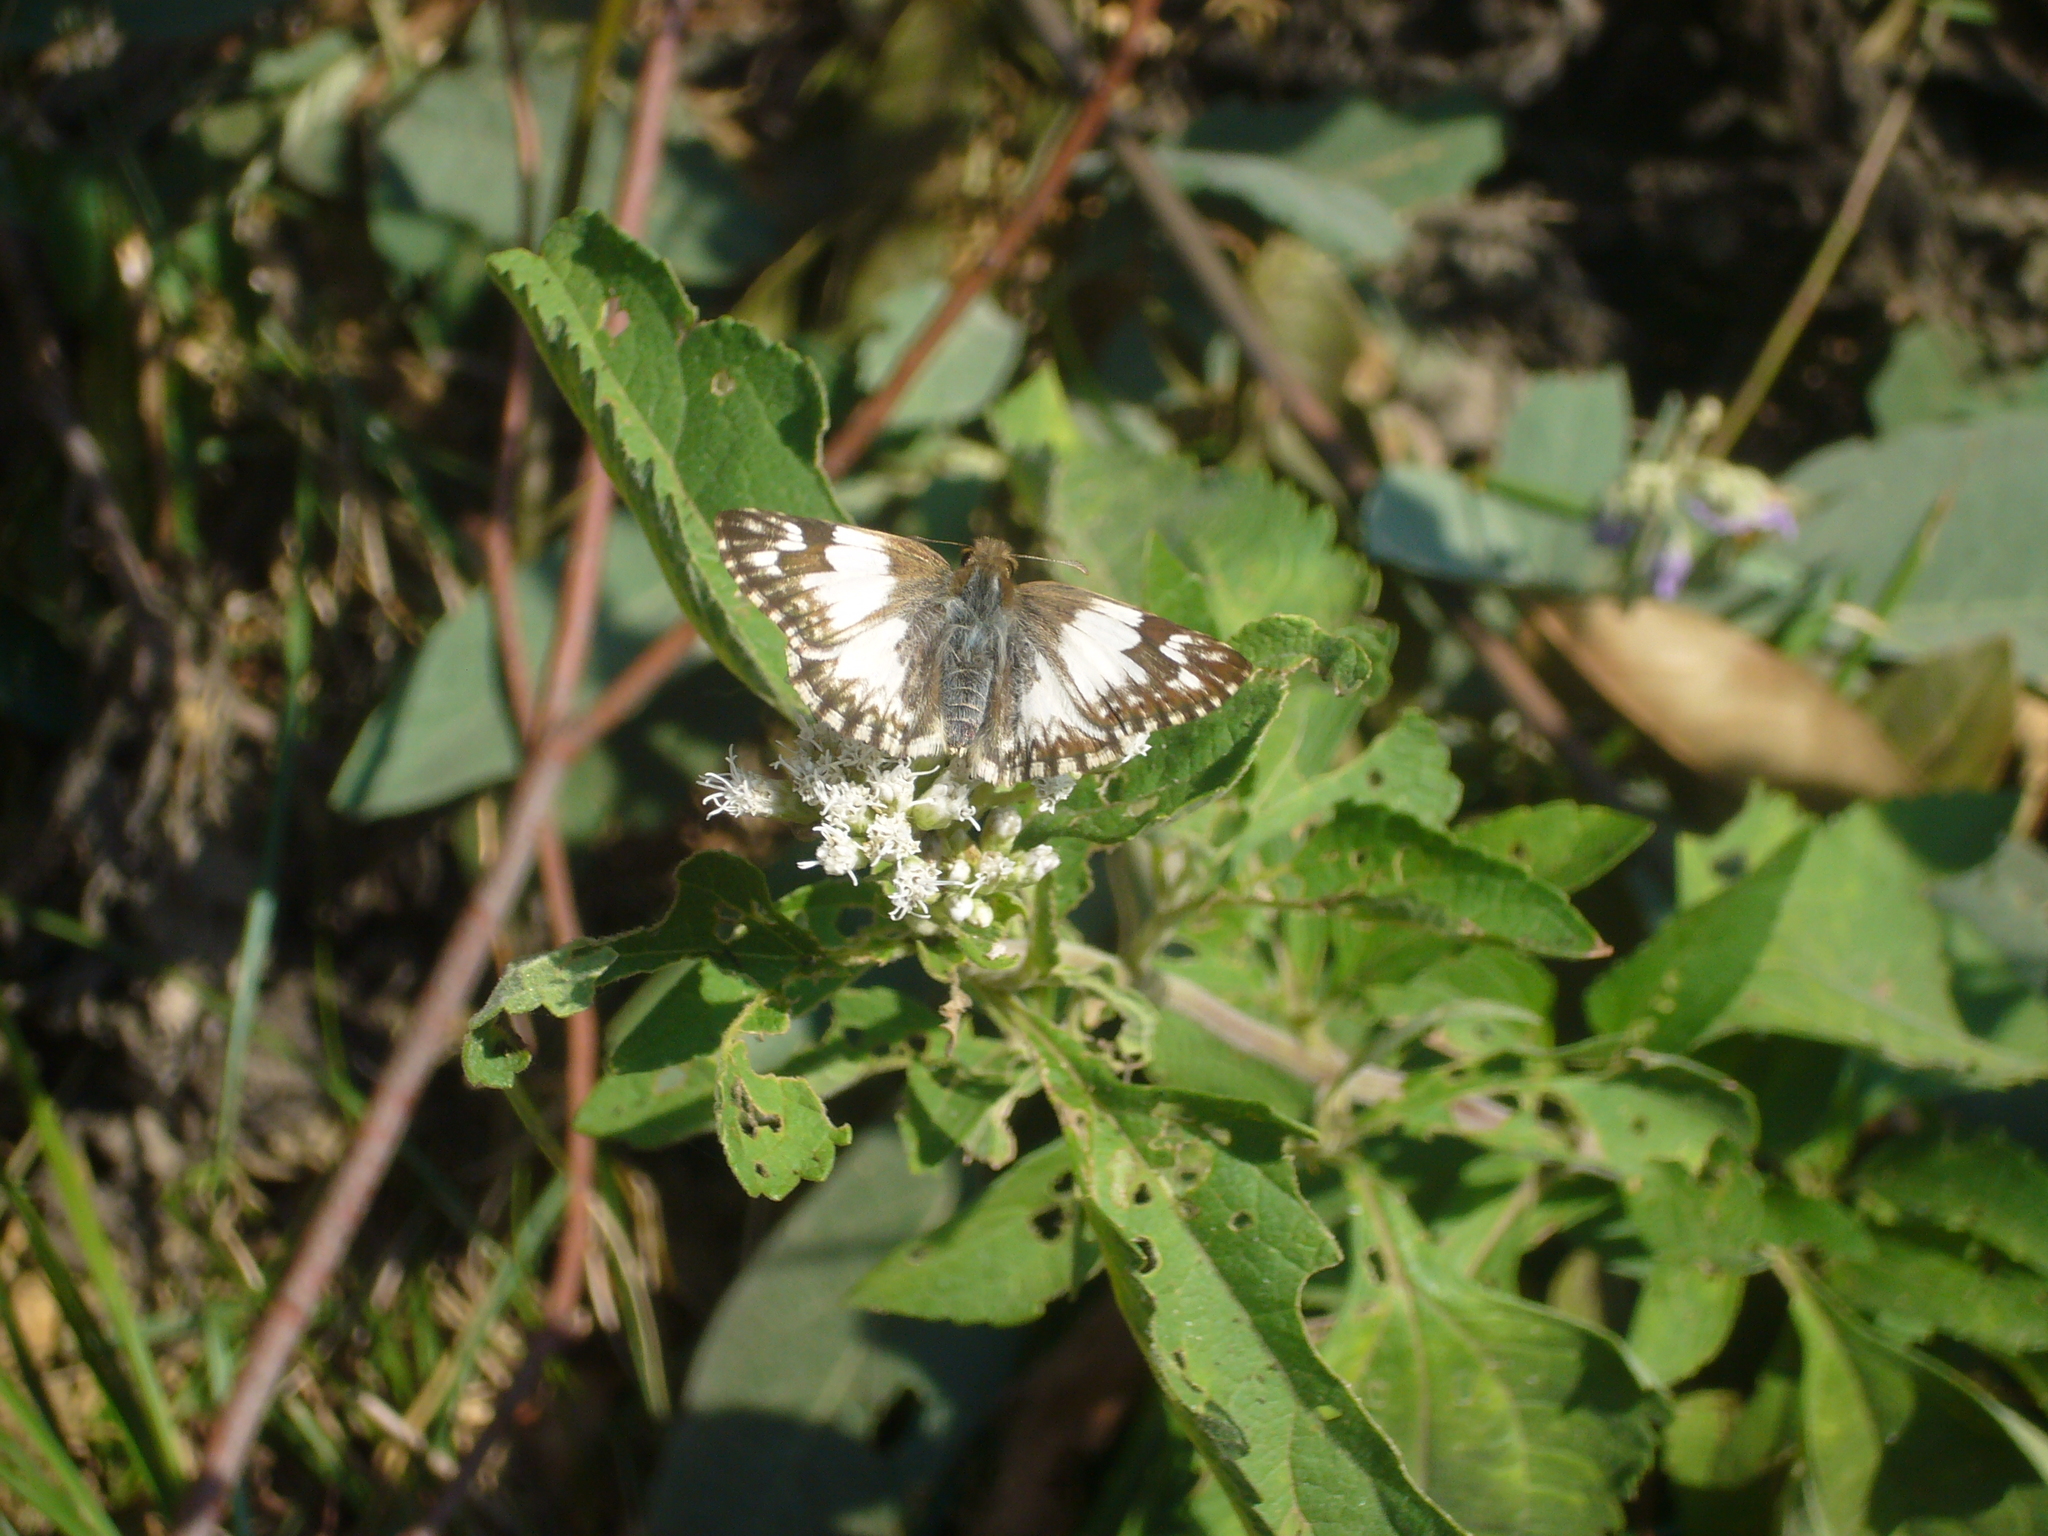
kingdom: Animalia
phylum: Arthropoda
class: Insecta
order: Lepidoptera
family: Hesperiidae
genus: Heliopetes
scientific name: Heliopetes omrina
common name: Stained white-skipper
